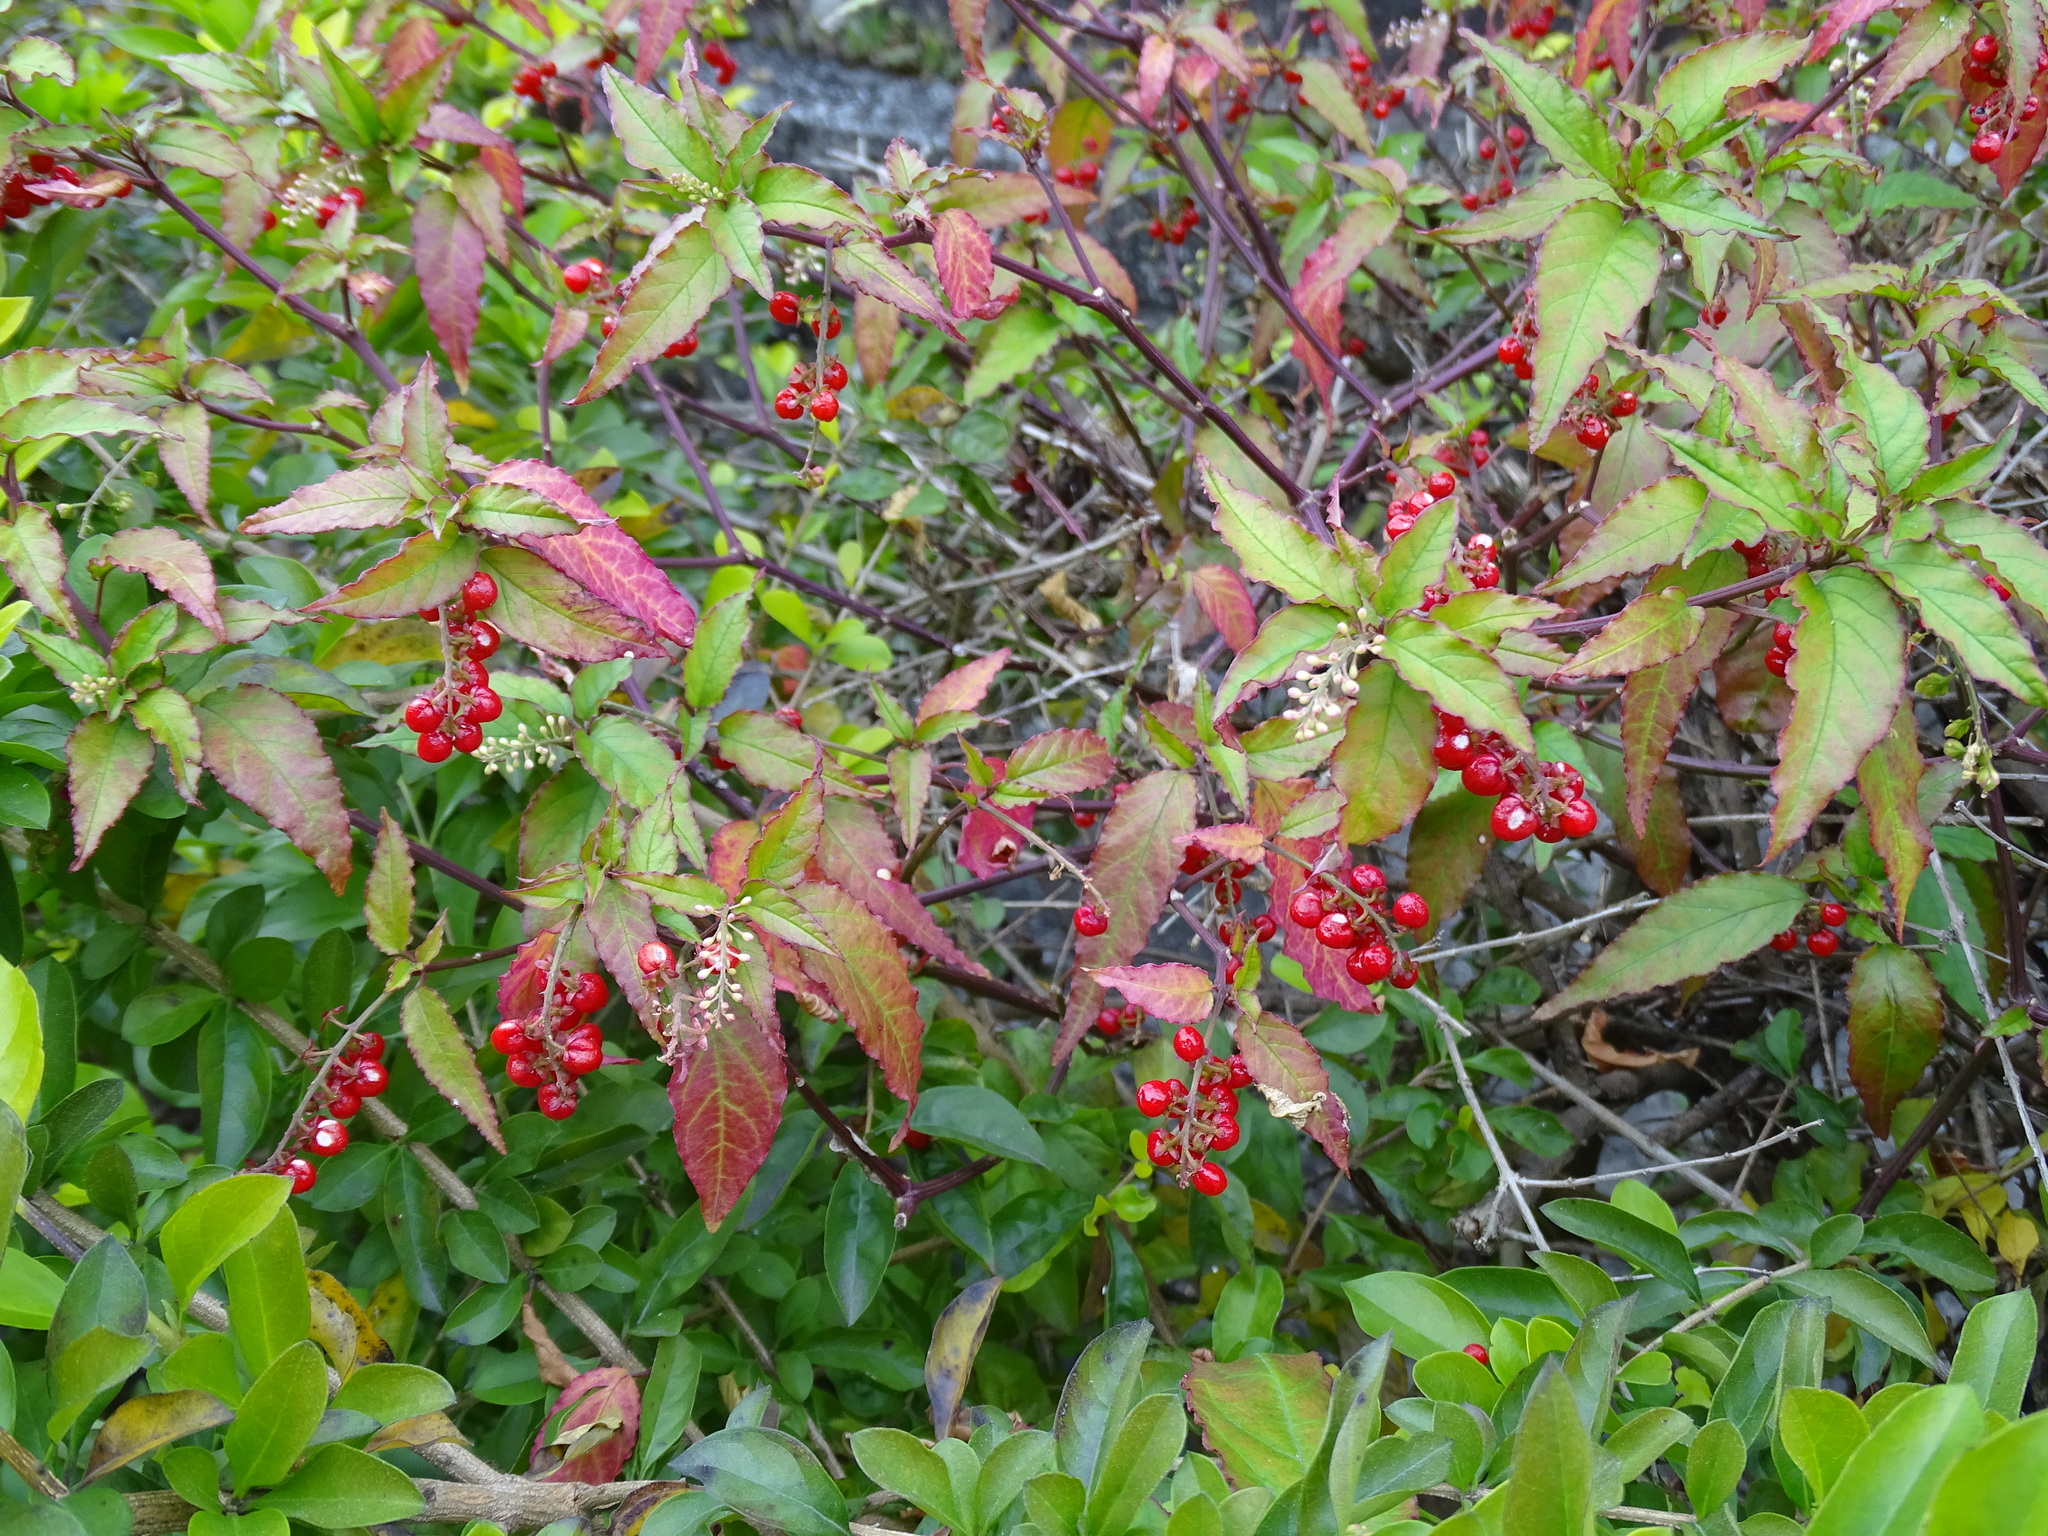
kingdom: Plantae
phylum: Tracheophyta
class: Magnoliopsida
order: Caryophyllales
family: Phytolaccaceae
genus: Rivina
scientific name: Rivina humilis
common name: Rougeplant
